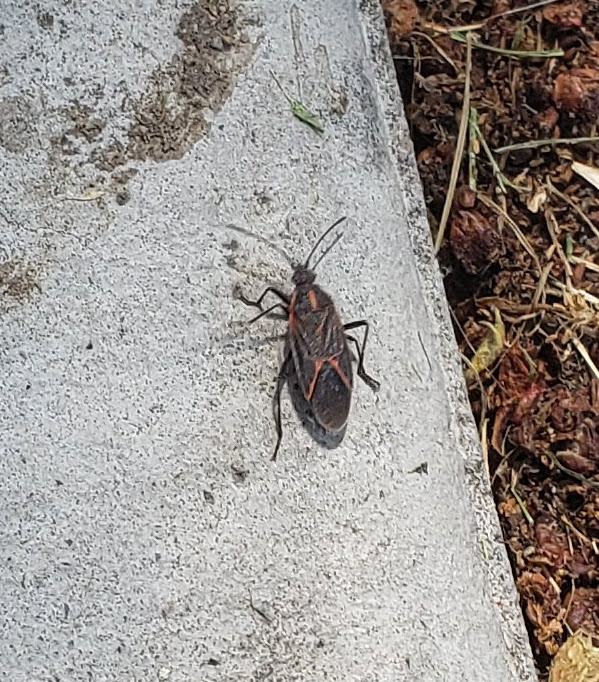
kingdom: Animalia
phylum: Arthropoda
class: Insecta
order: Hemiptera
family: Rhopalidae
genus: Boisea
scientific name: Boisea rubrolineata
